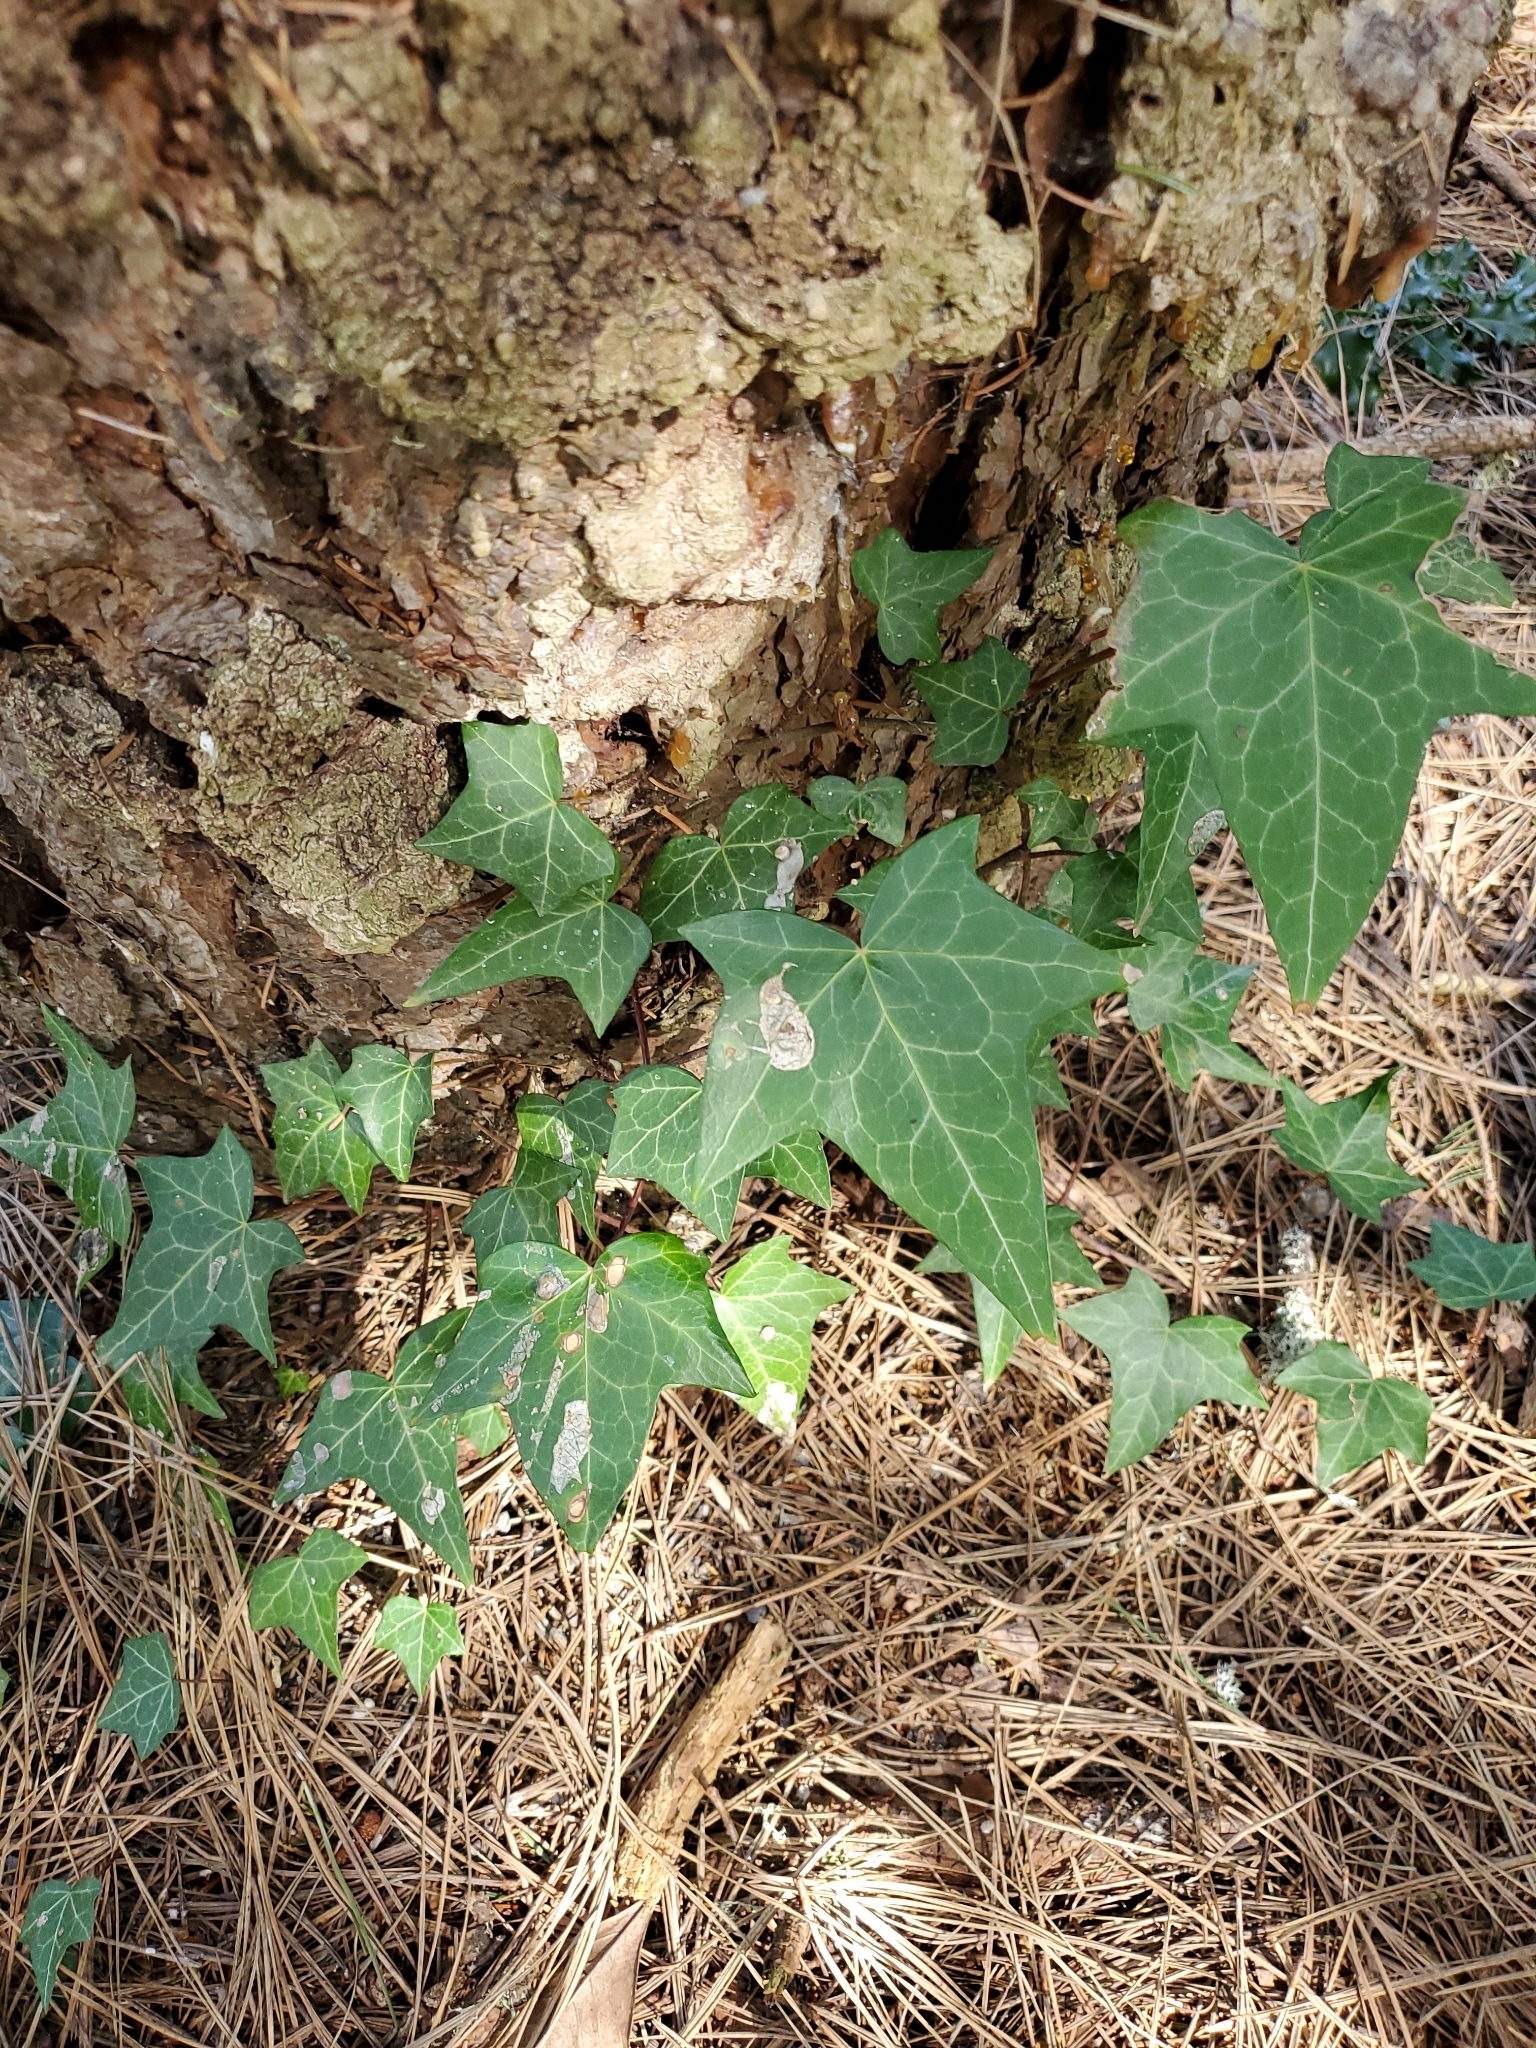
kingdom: Plantae
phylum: Tracheophyta
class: Magnoliopsida
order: Apiales
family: Araliaceae
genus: Hedera
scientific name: Hedera helix
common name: Ivy
